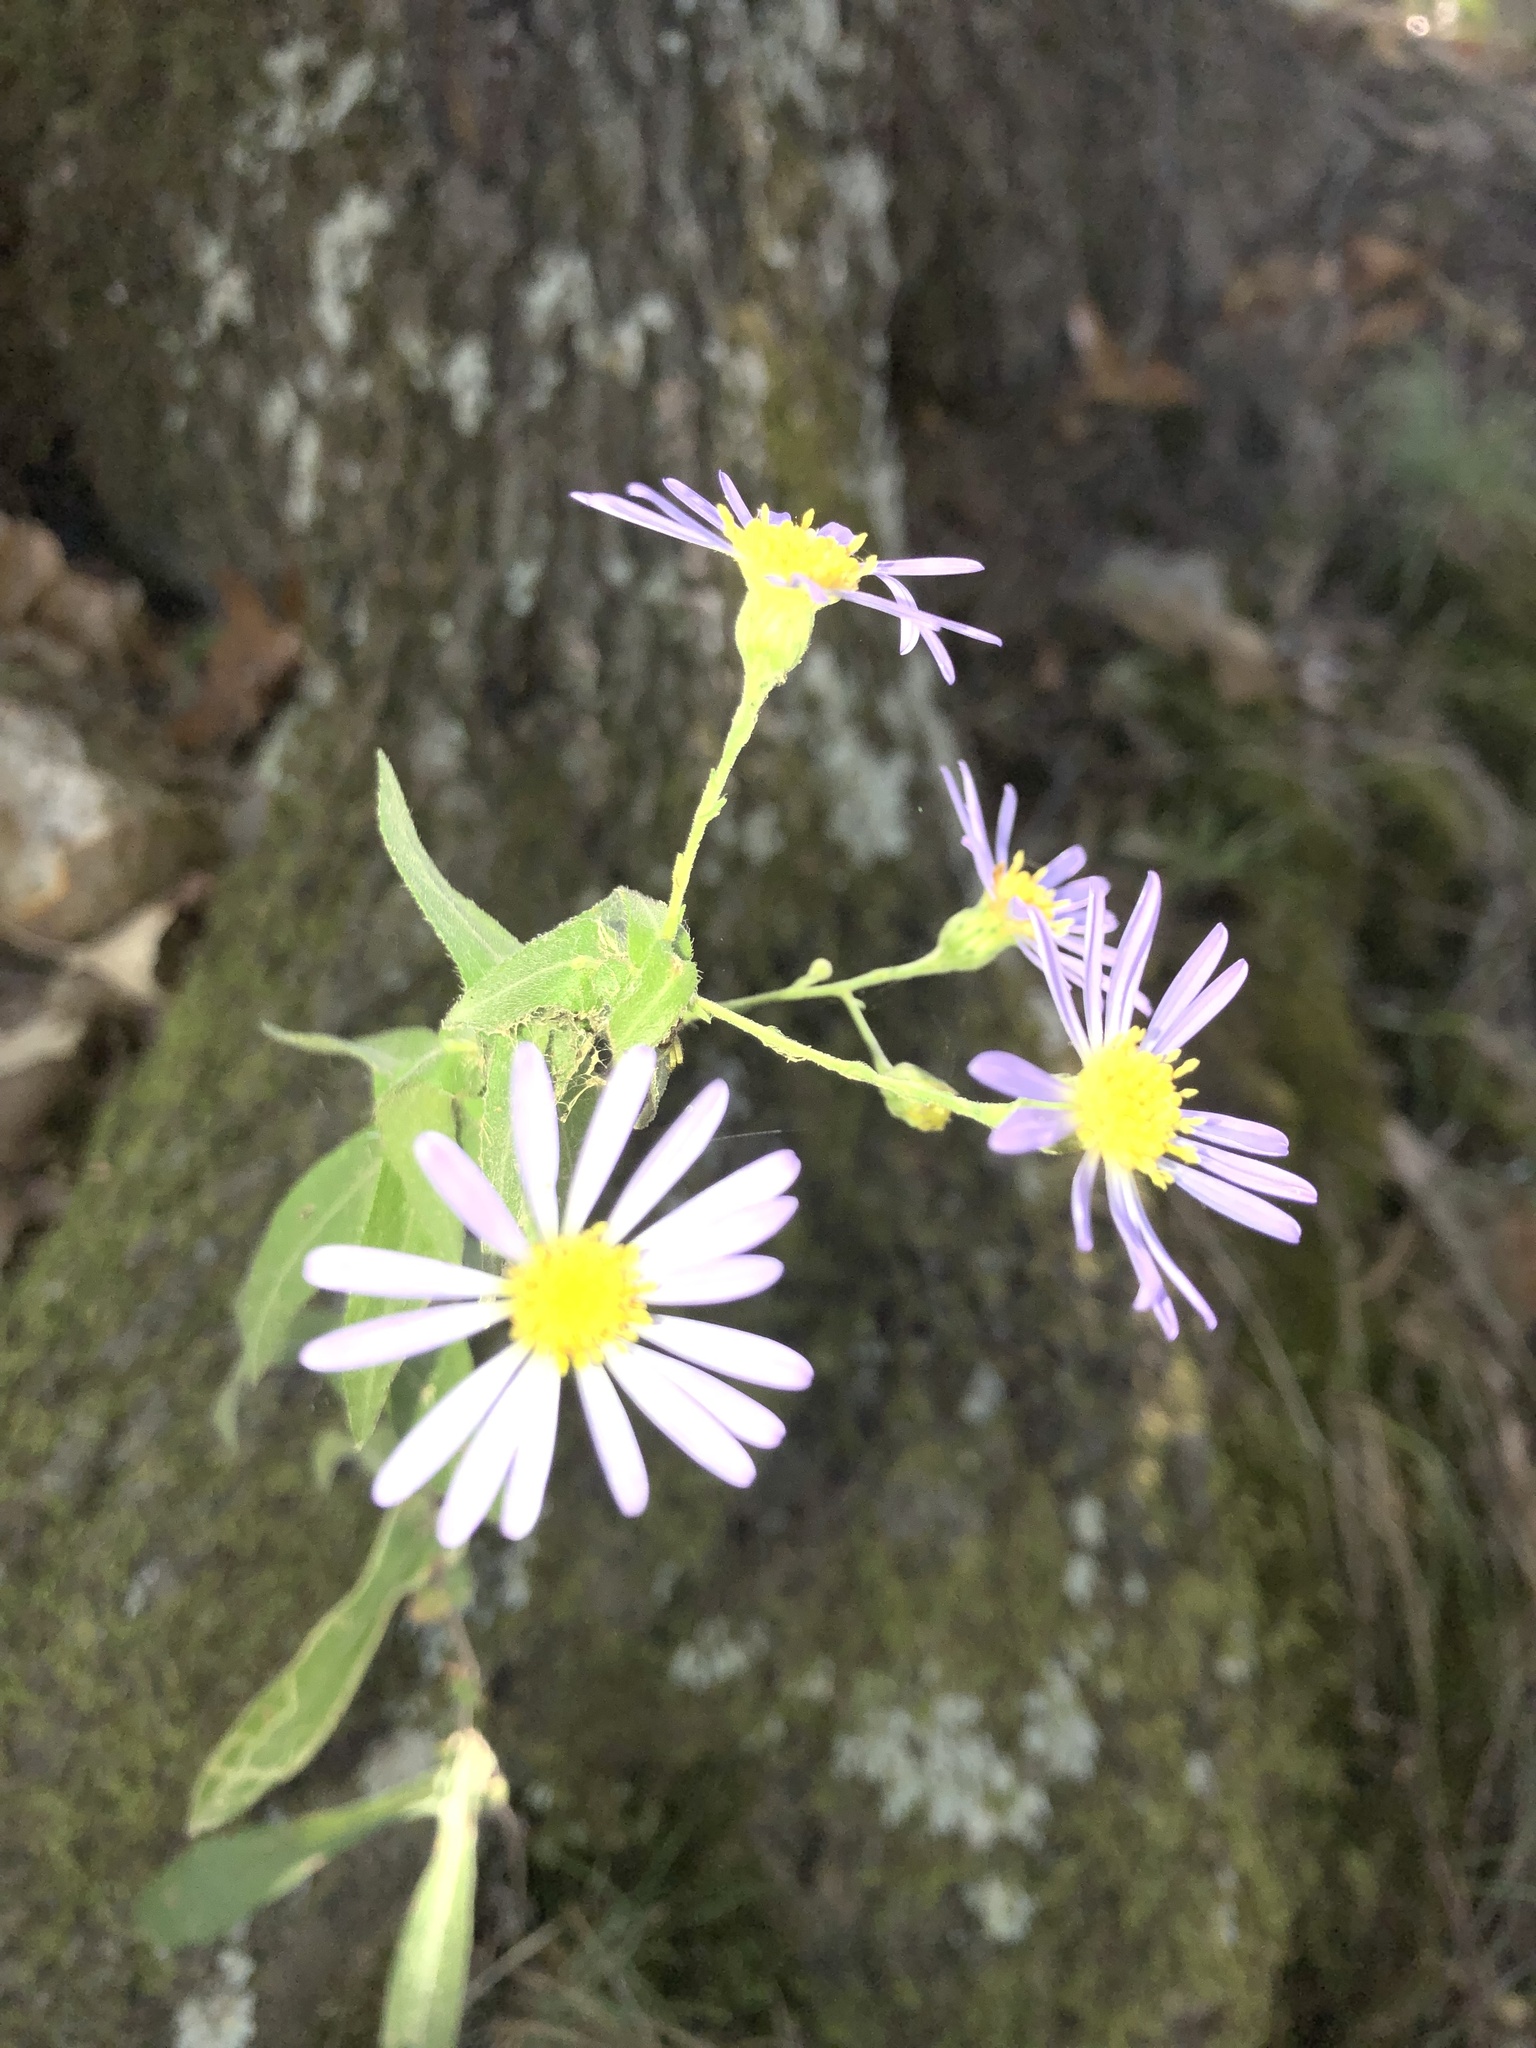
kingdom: Plantae
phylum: Tracheophyta
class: Magnoliopsida
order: Asterales
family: Asteraceae
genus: Symphyotrichum
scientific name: Symphyotrichum patens
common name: Late purple aster
